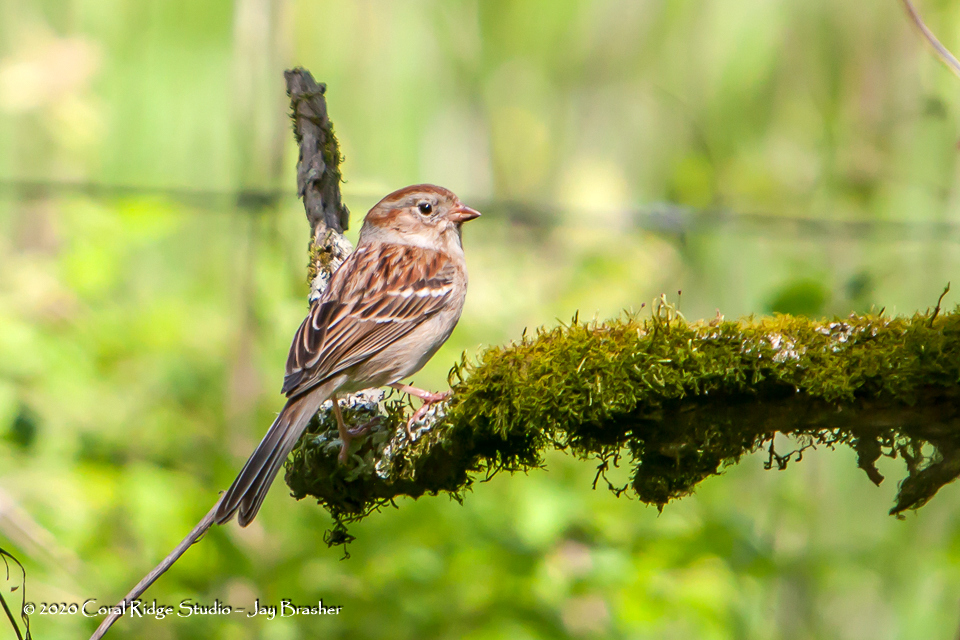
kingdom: Animalia
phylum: Chordata
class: Aves
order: Passeriformes
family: Passerellidae
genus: Spizella
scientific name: Spizella pusilla
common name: Field sparrow
